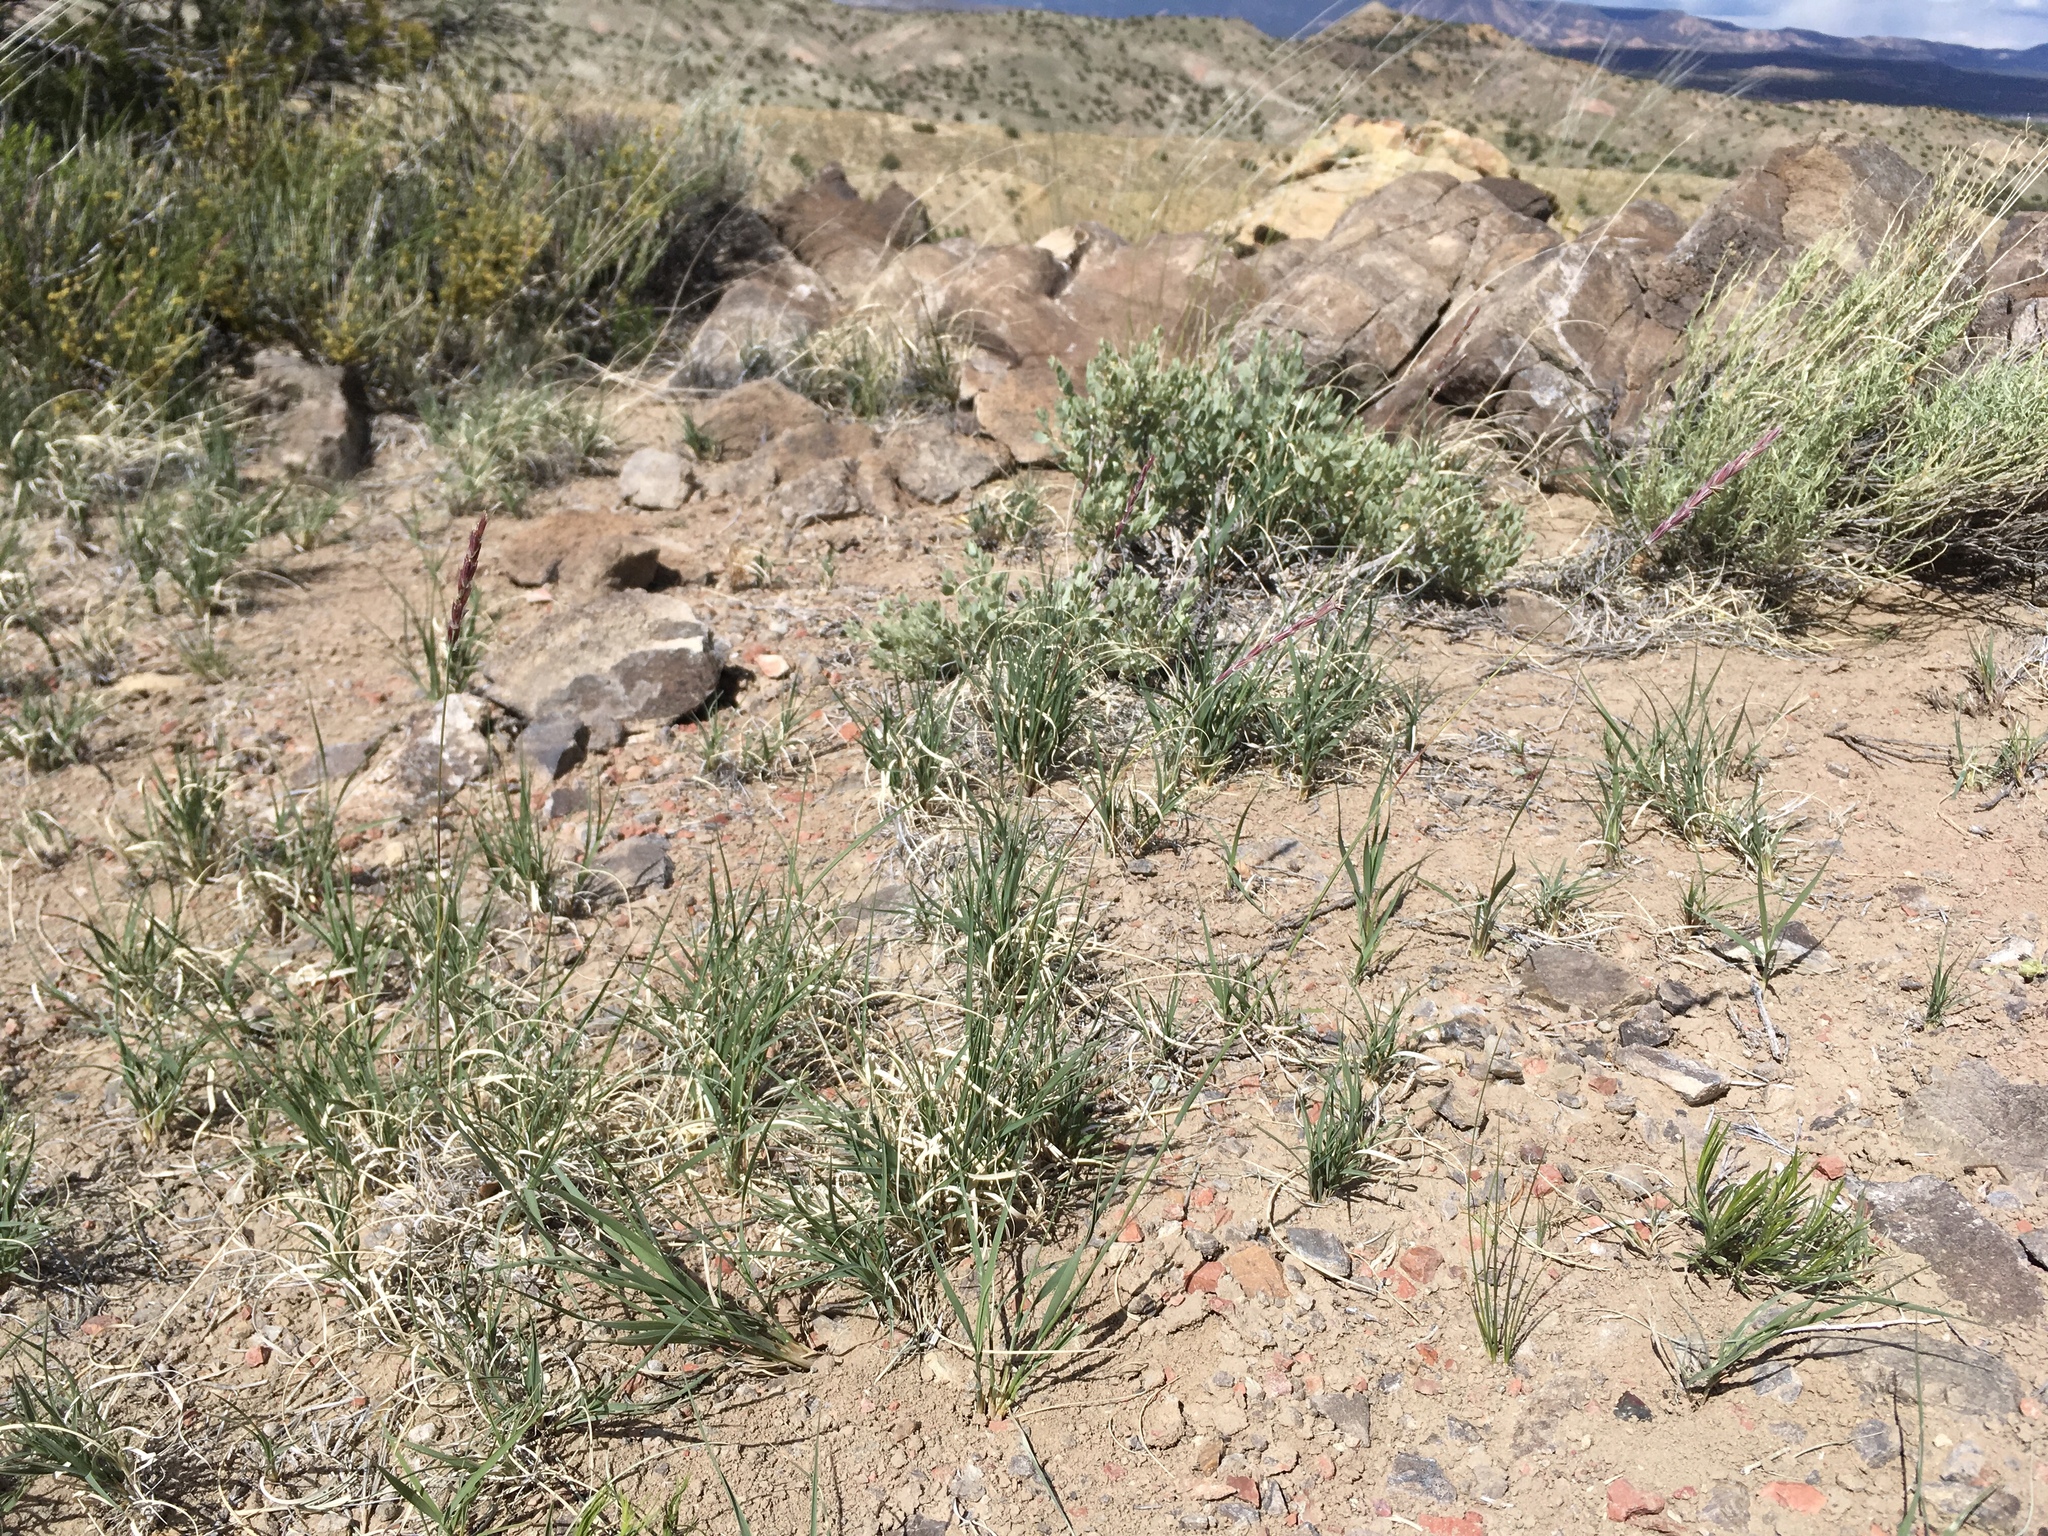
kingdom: Plantae
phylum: Tracheophyta
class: Liliopsida
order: Poales
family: Poaceae
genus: Hilaria
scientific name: Hilaria jamesii
